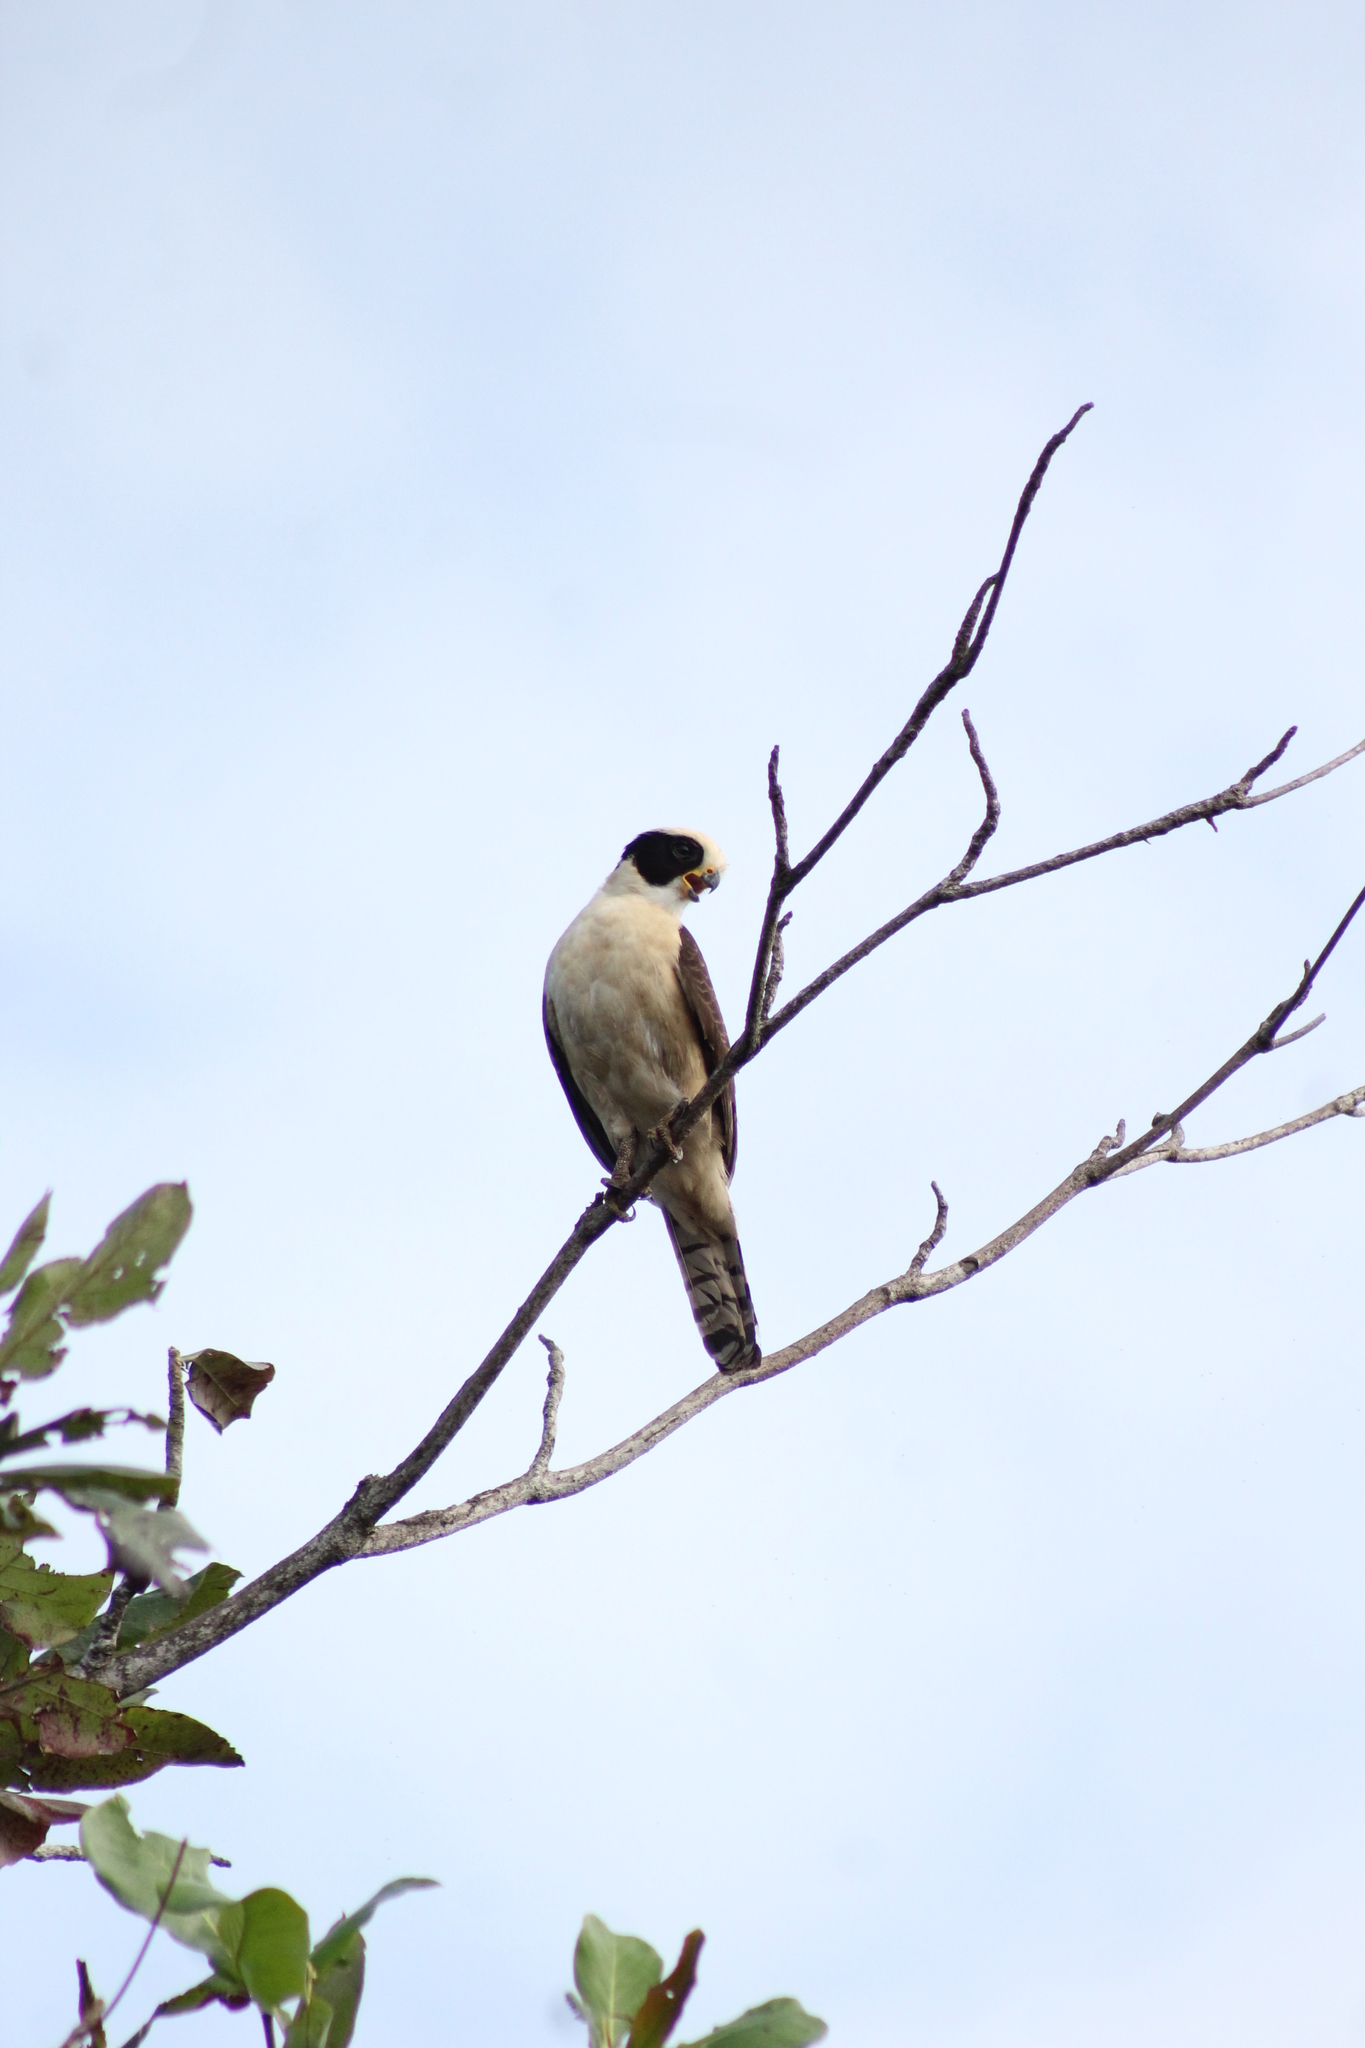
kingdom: Animalia
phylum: Chordata
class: Aves
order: Falconiformes
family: Falconidae
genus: Herpetotheres
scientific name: Herpetotheres cachinnans
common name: Laughing falcon
